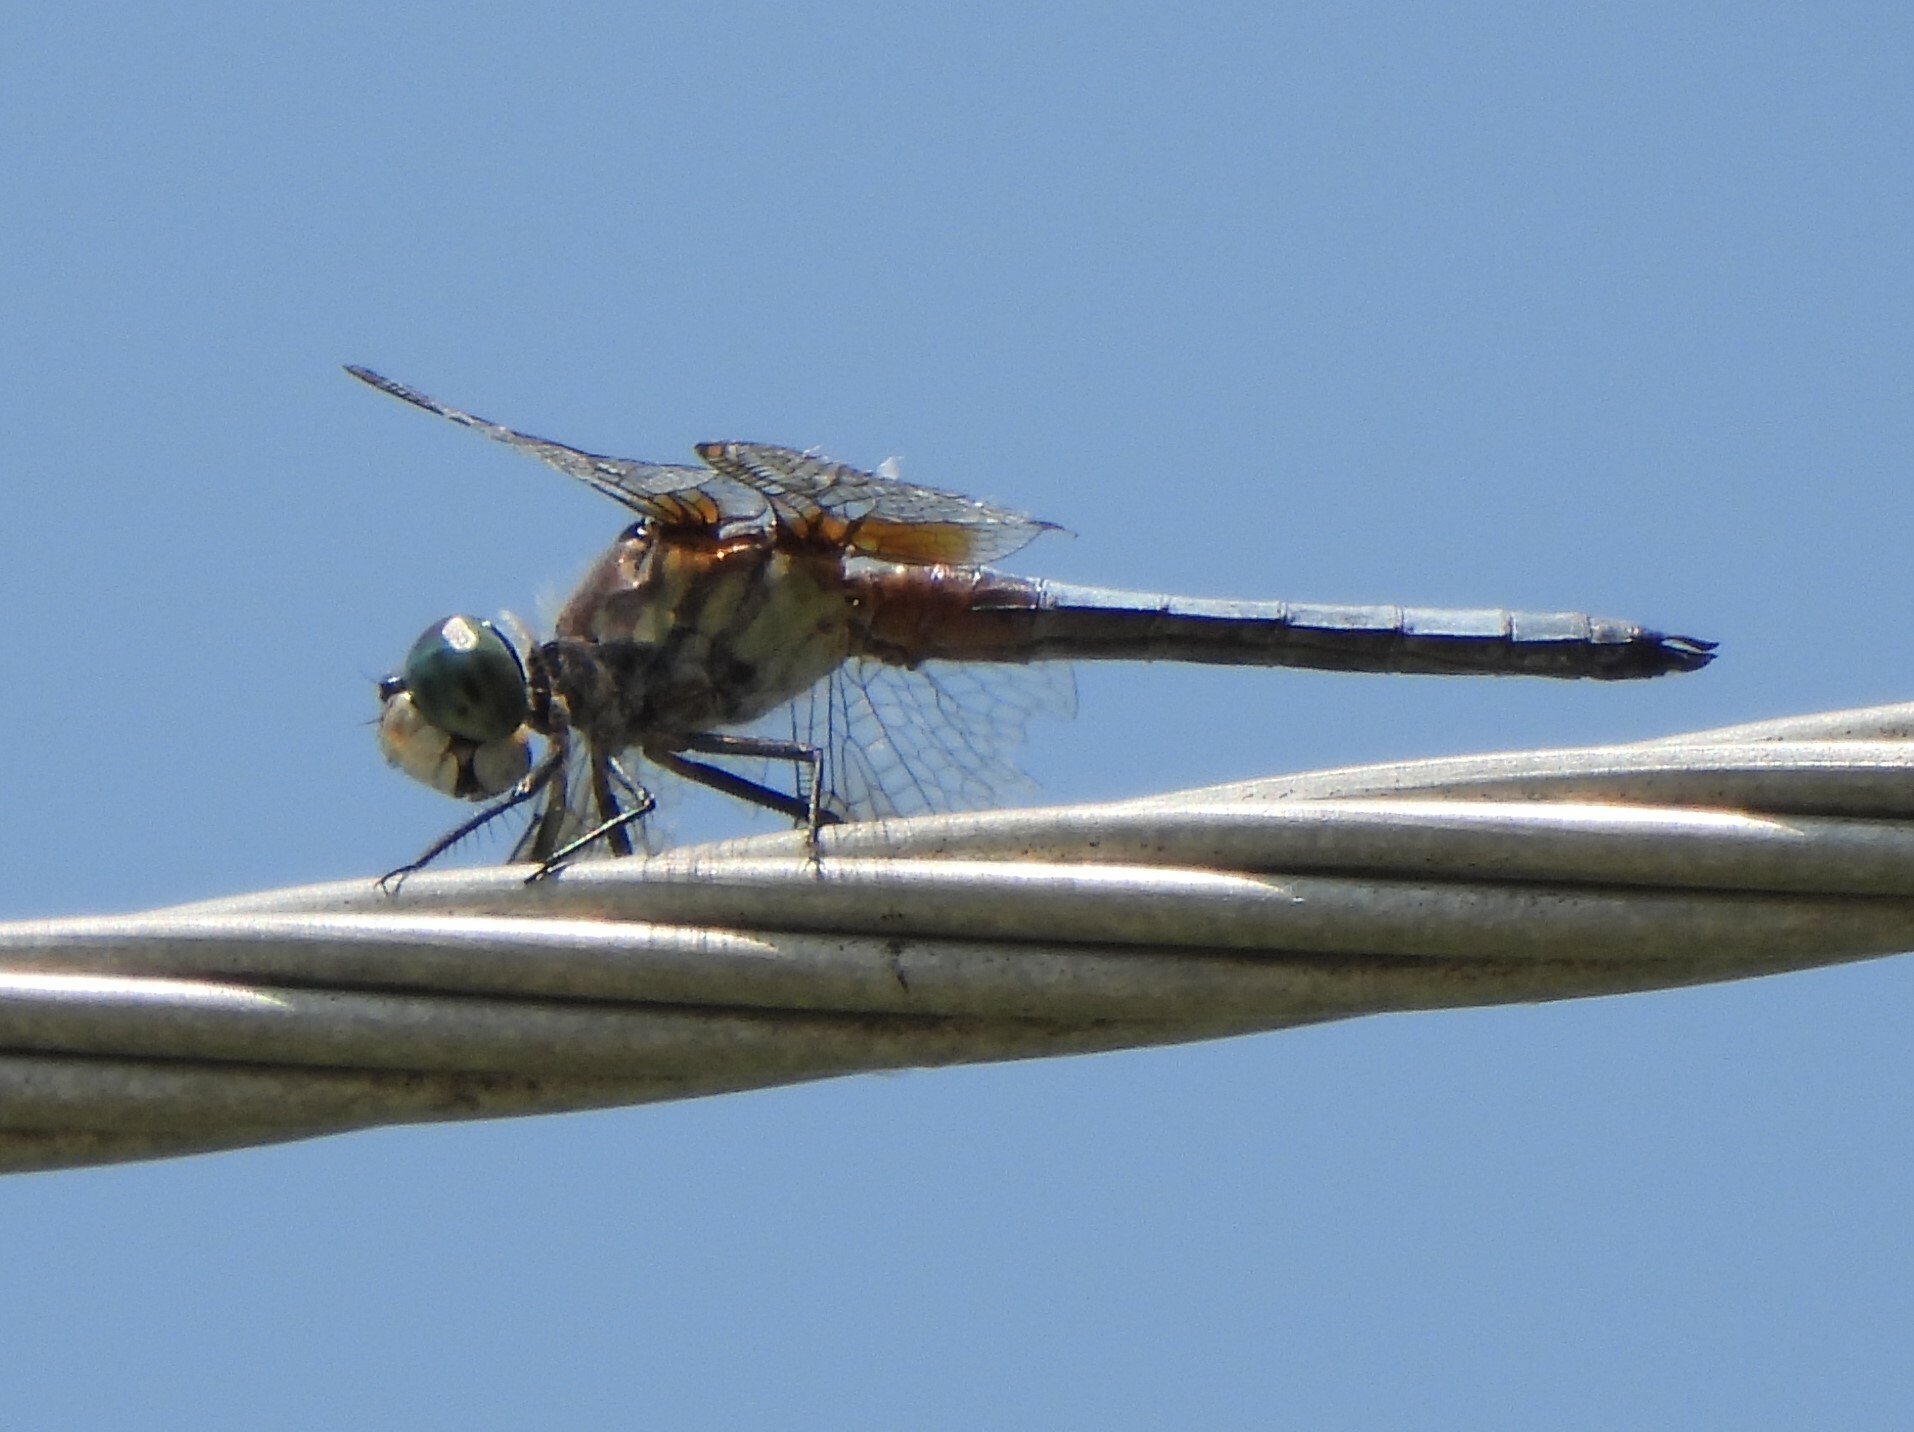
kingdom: Animalia
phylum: Arthropoda
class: Insecta
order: Odonata
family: Libellulidae
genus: Pachydiplax
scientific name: Pachydiplax longipennis
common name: Blue dasher
